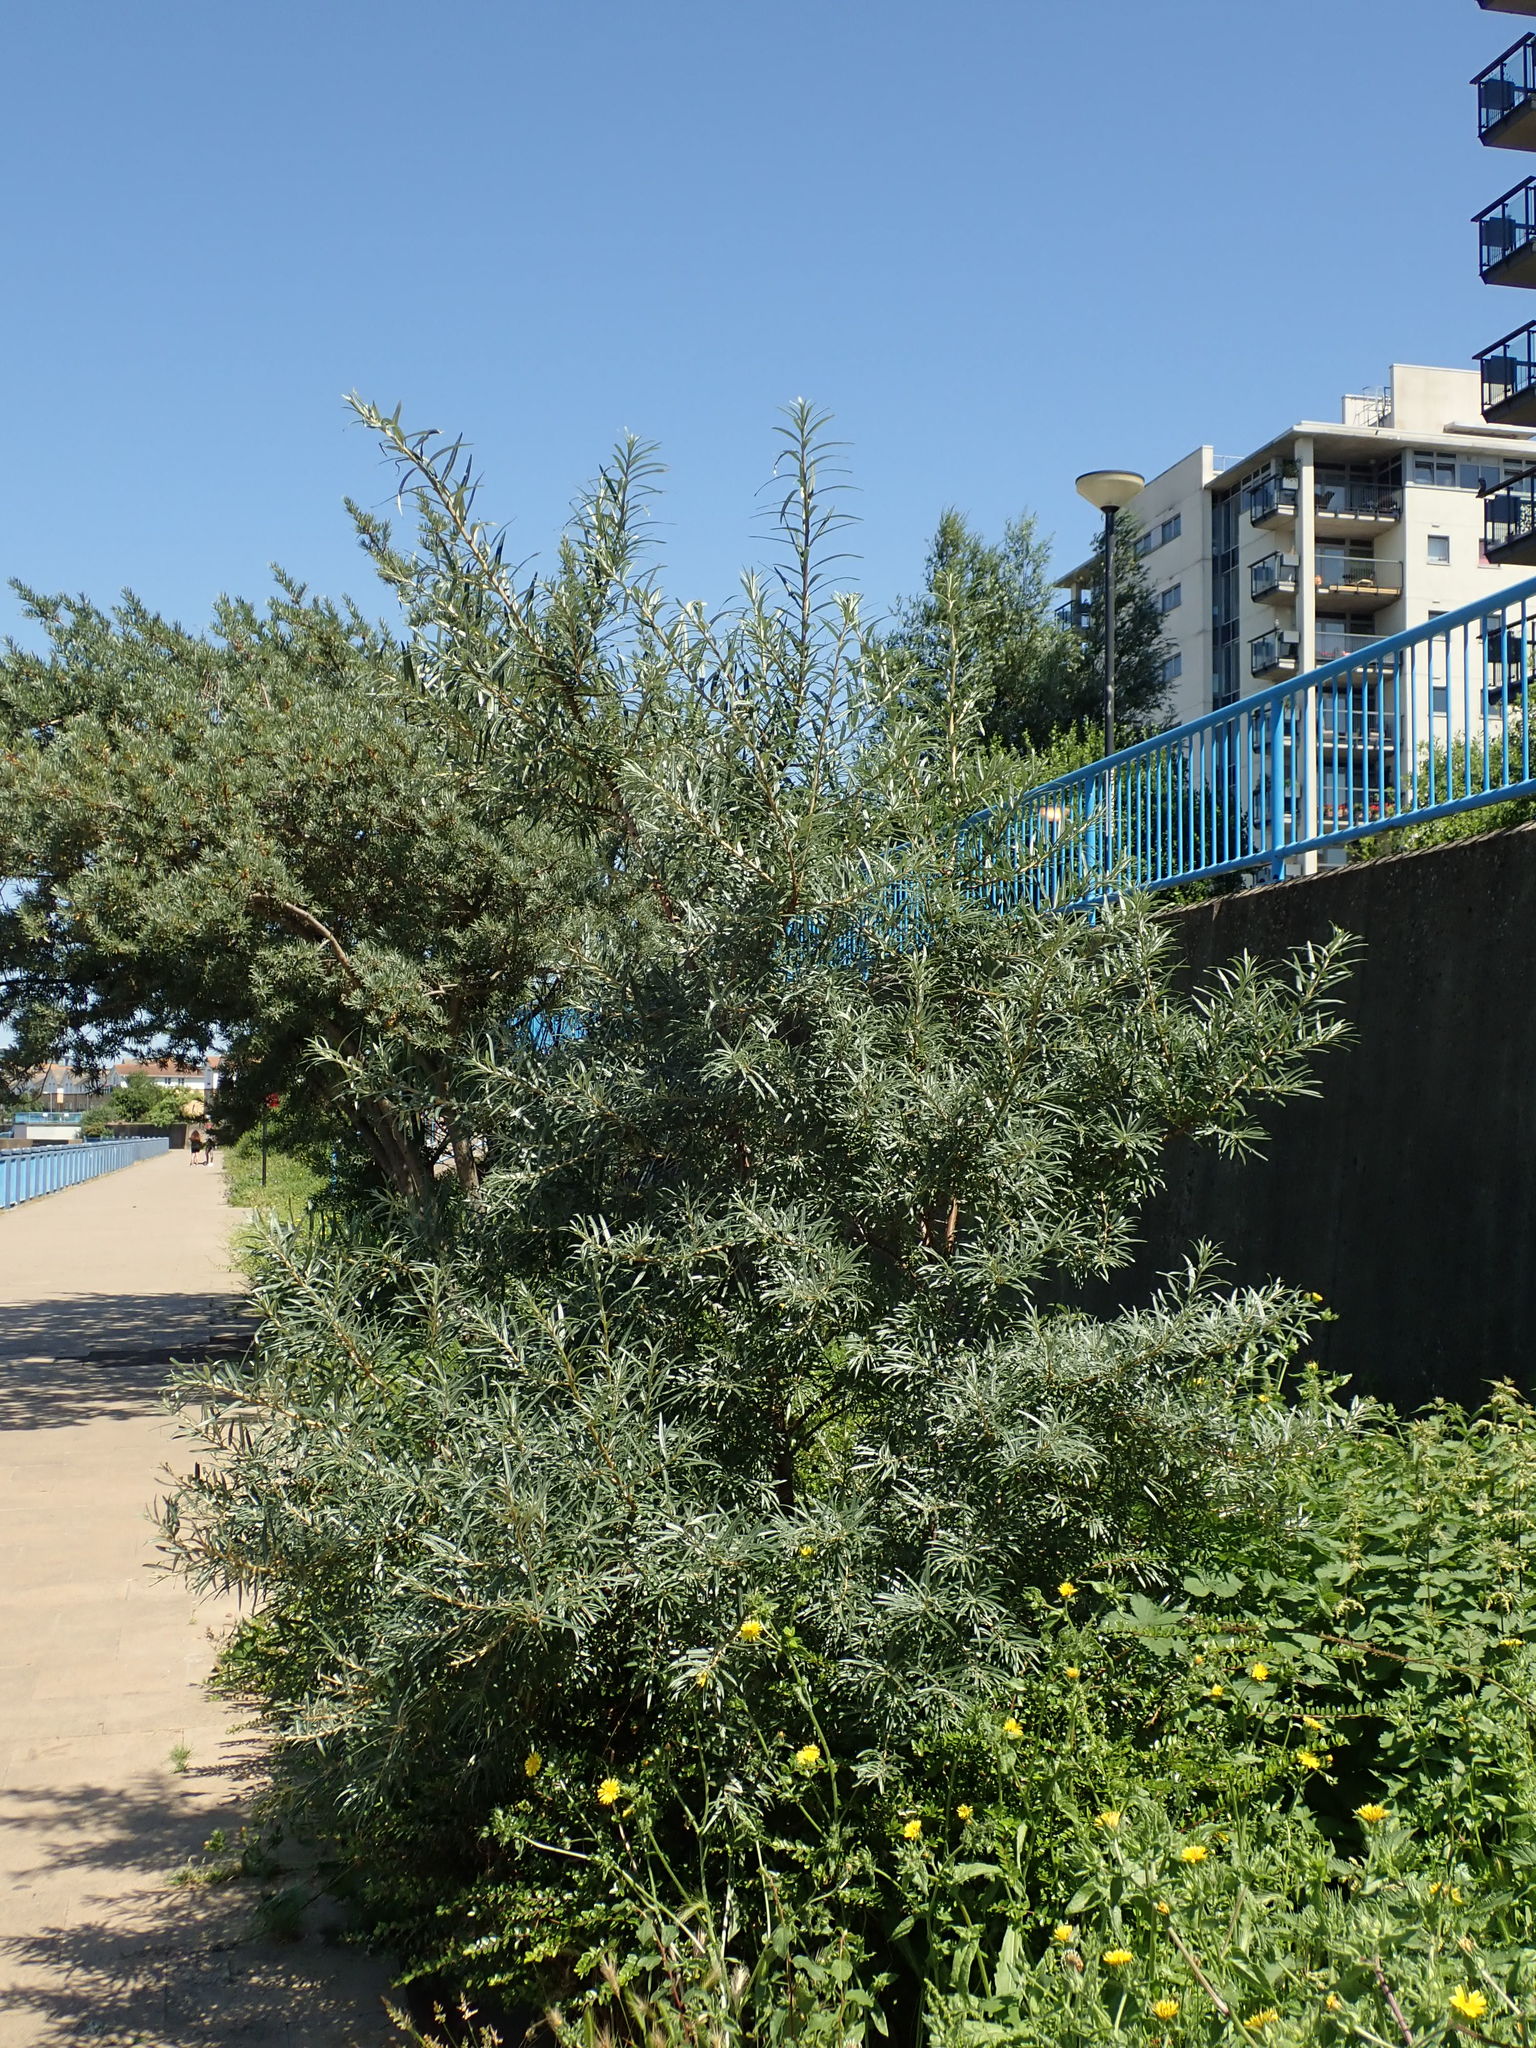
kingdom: Plantae
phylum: Tracheophyta
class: Magnoliopsida
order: Rosales
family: Elaeagnaceae
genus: Hippophae
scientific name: Hippophae rhamnoides
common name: Sea-buckthorn
